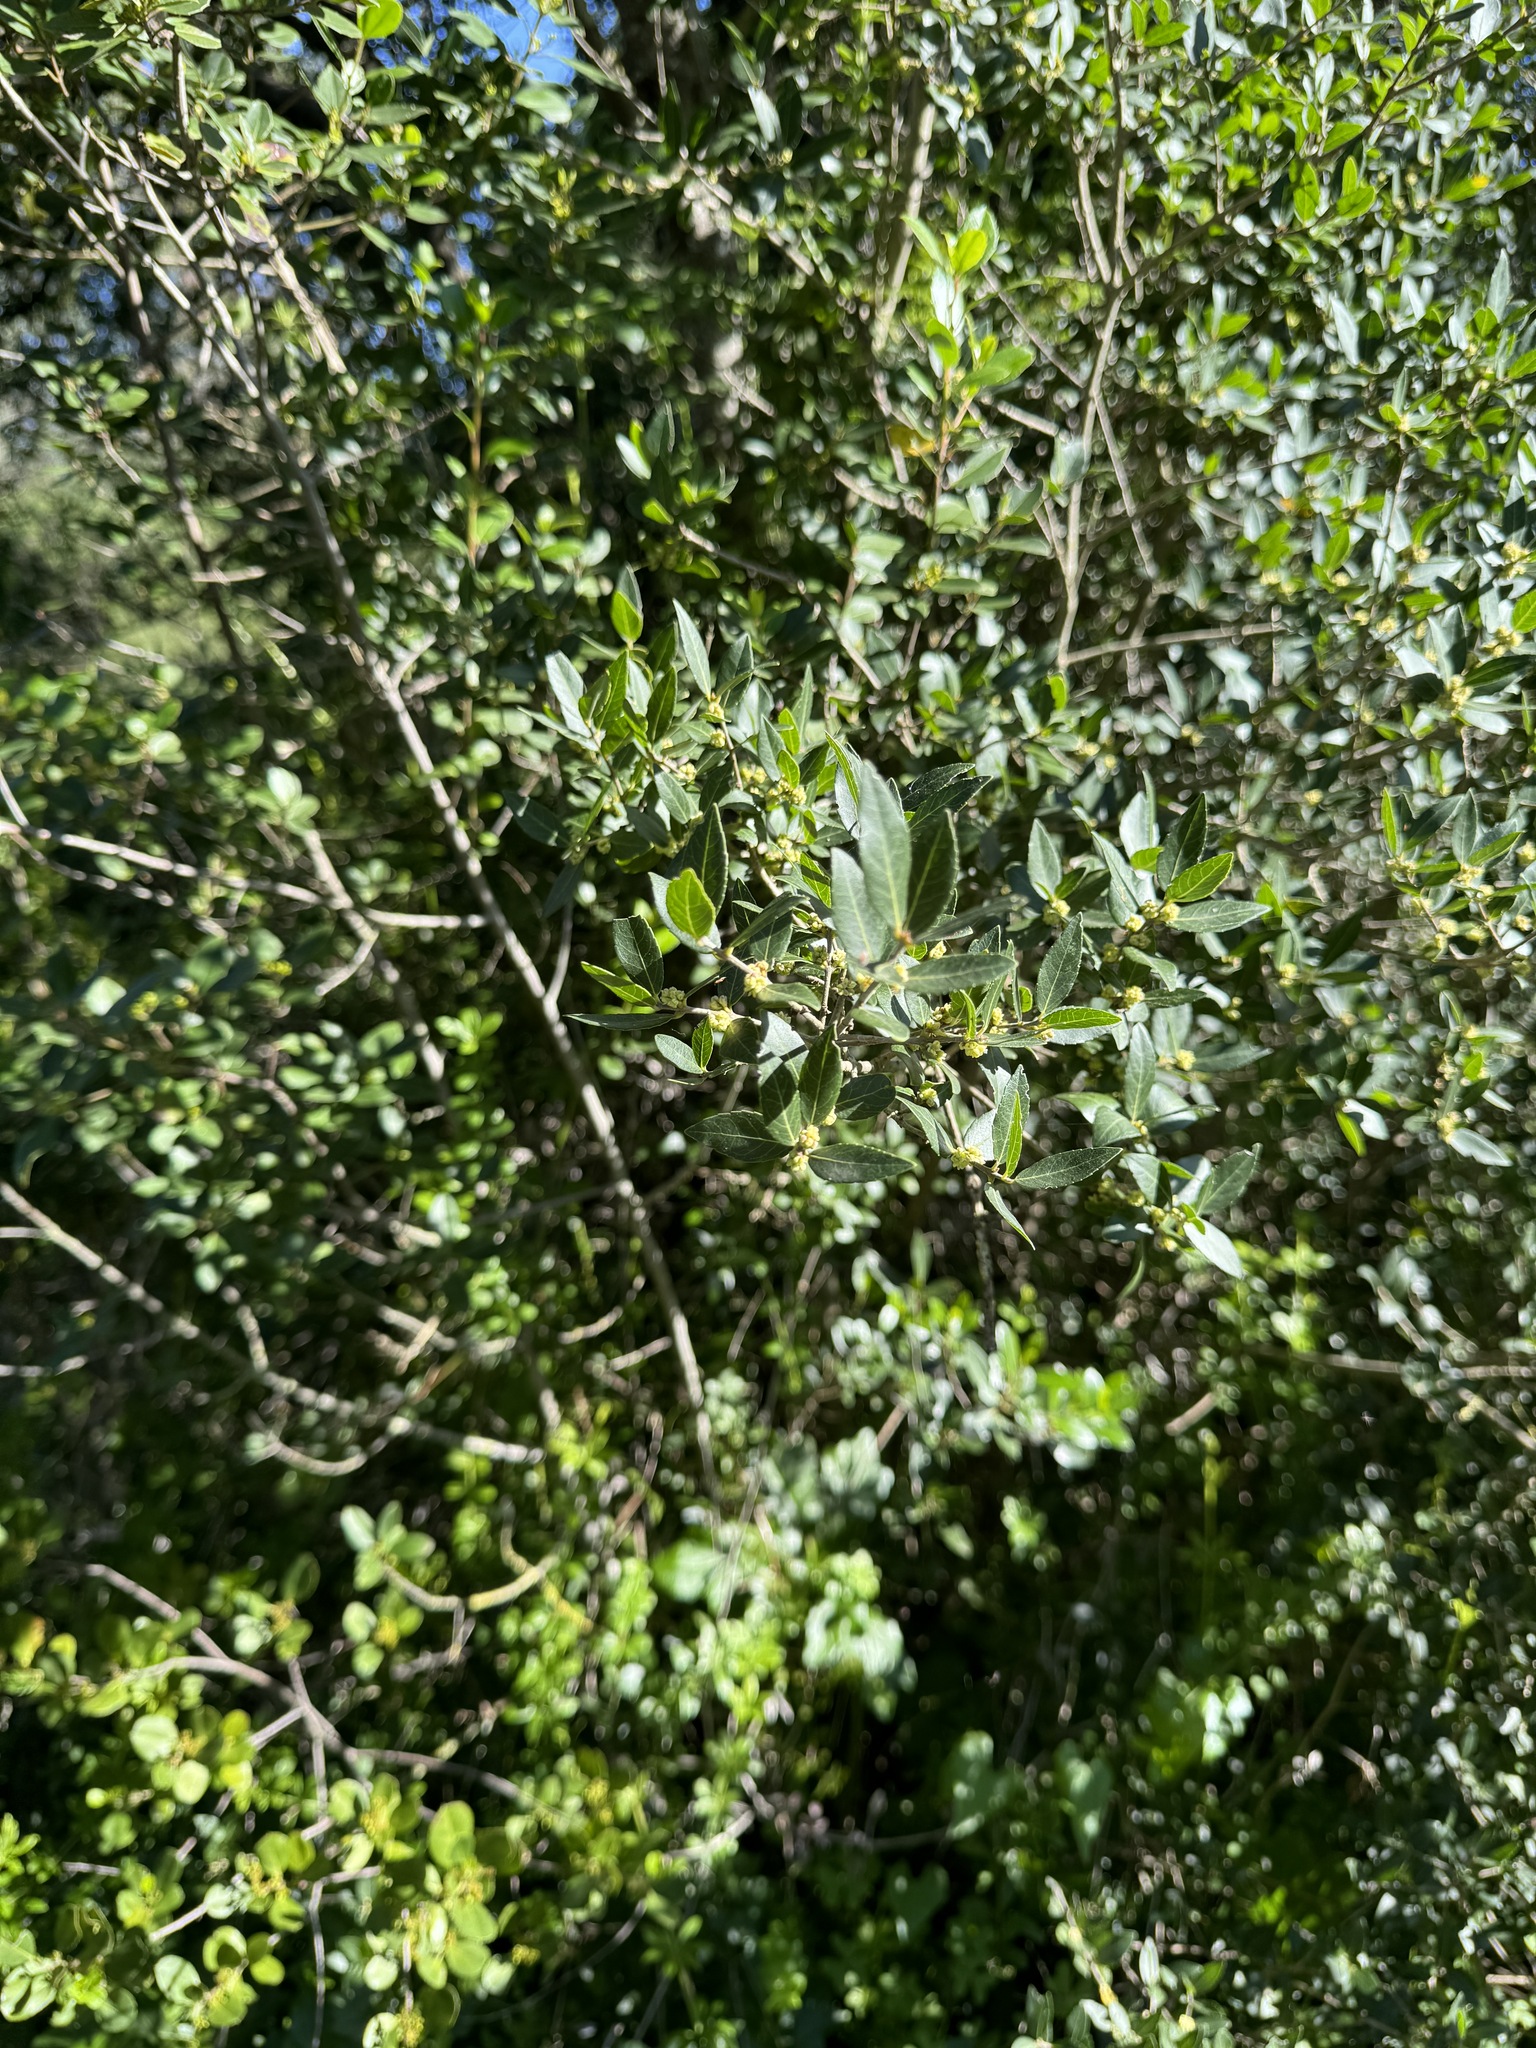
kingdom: Plantae
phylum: Tracheophyta
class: Magnoliopsida
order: Lamiales
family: Oleaceae
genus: Phillyrea
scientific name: Phillyrea latifolia
